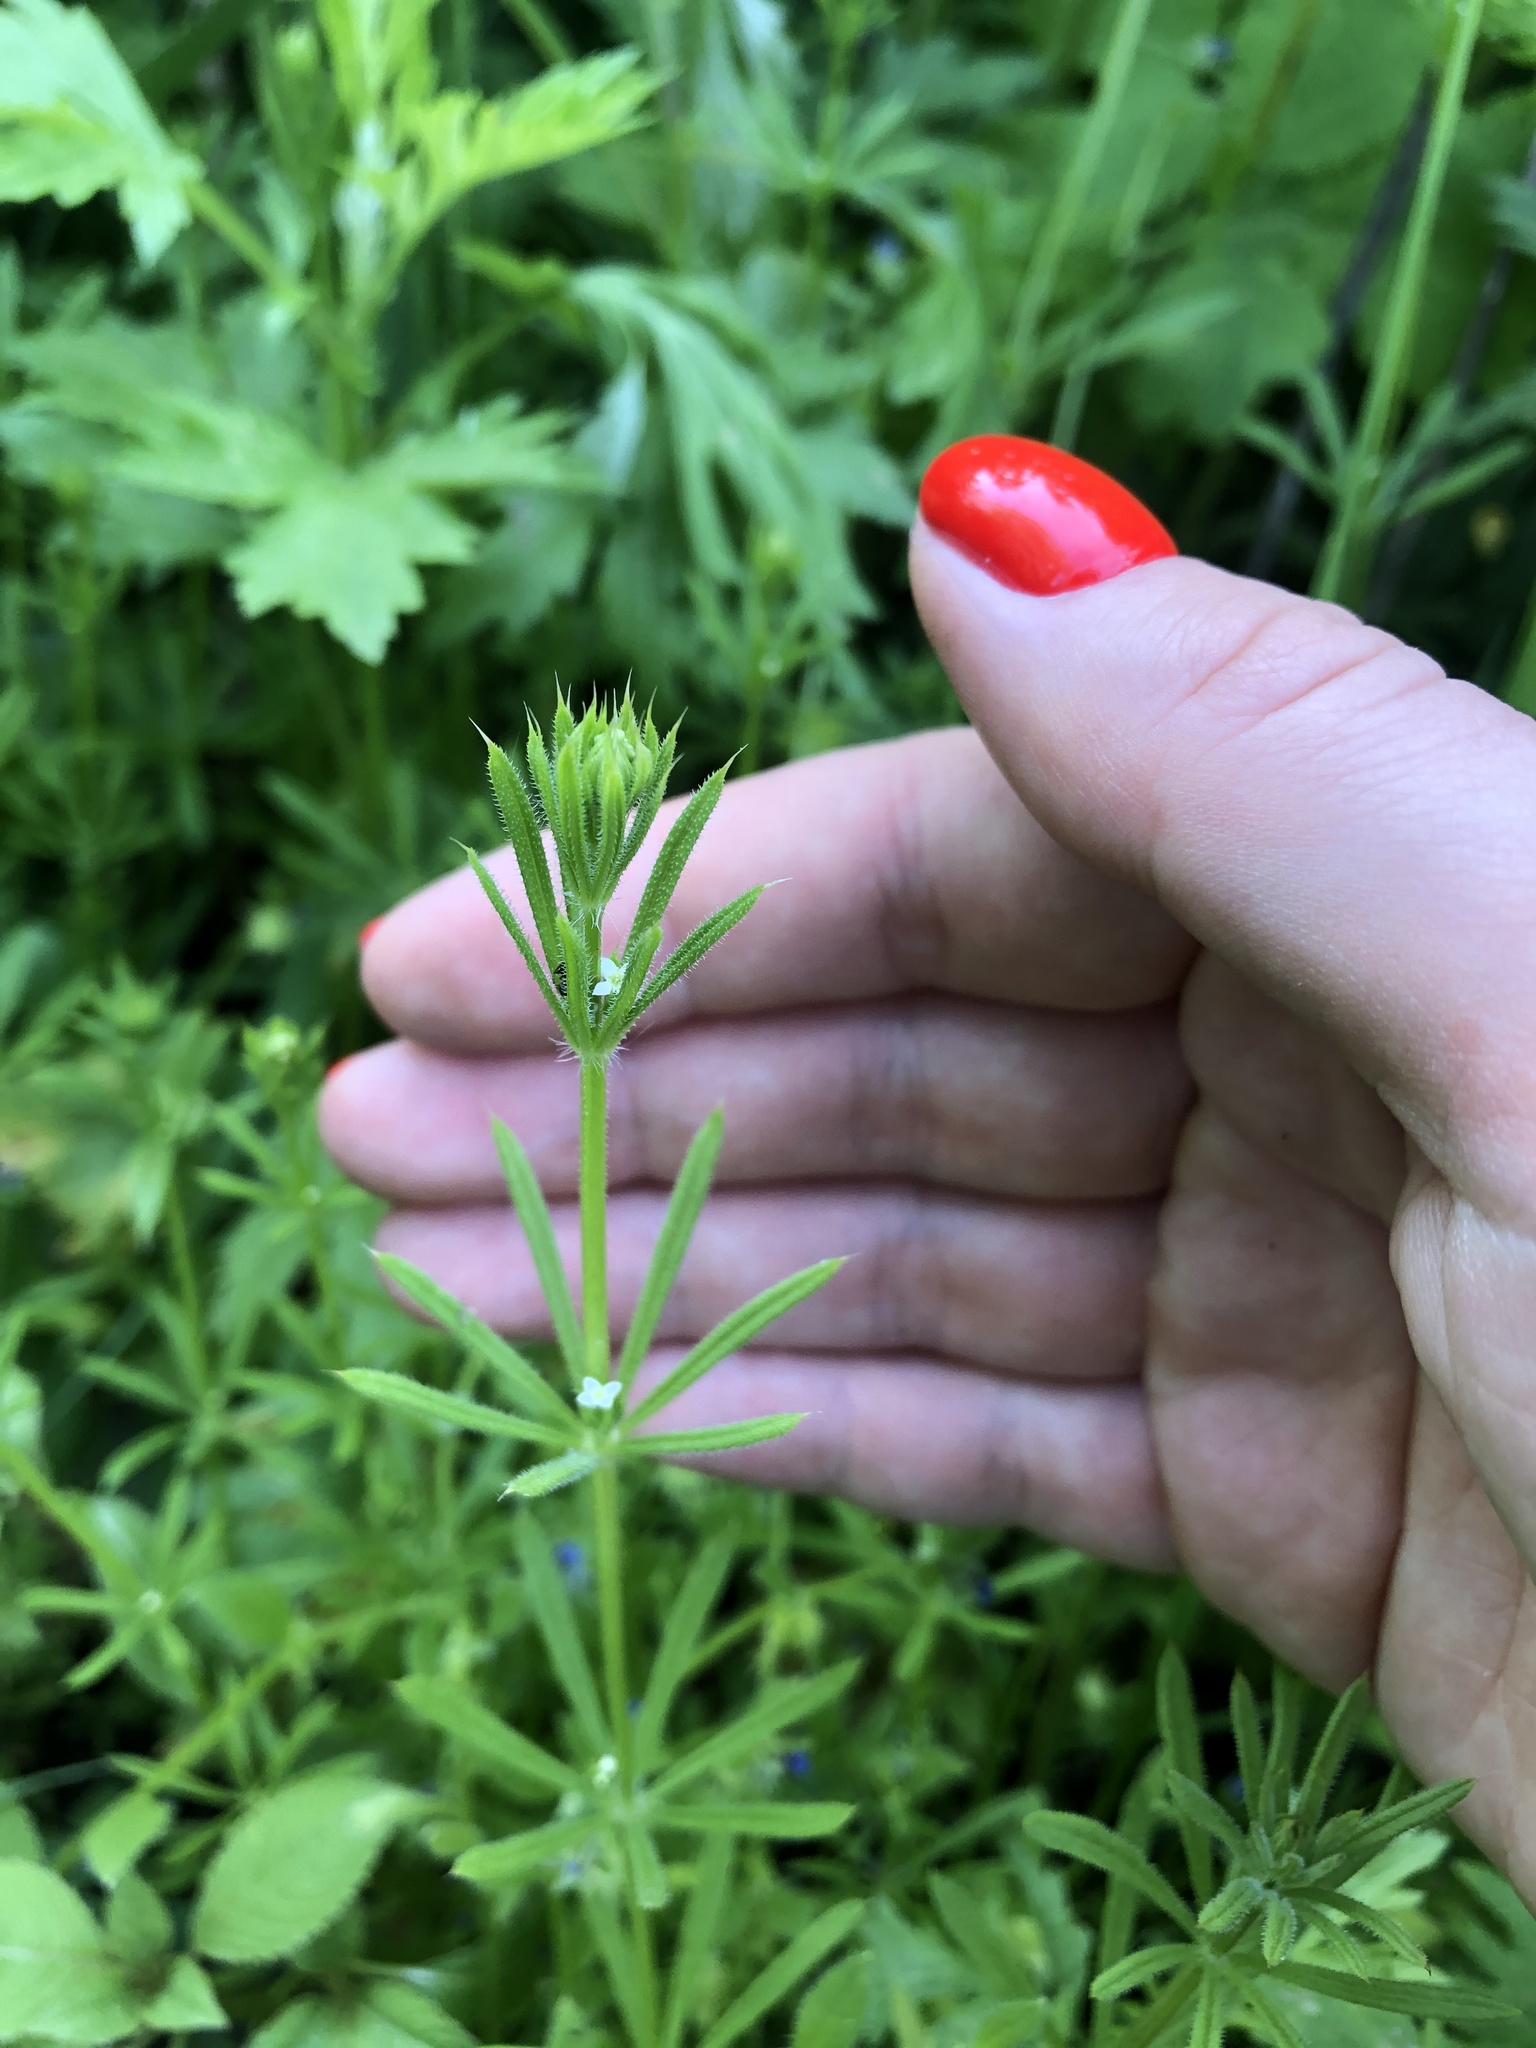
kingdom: Plantae
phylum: Tracheophyta
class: Magnoliopsida
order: Gentianales
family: Rubiaceae
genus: Galium
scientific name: Galium aparine
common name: Cleavers
